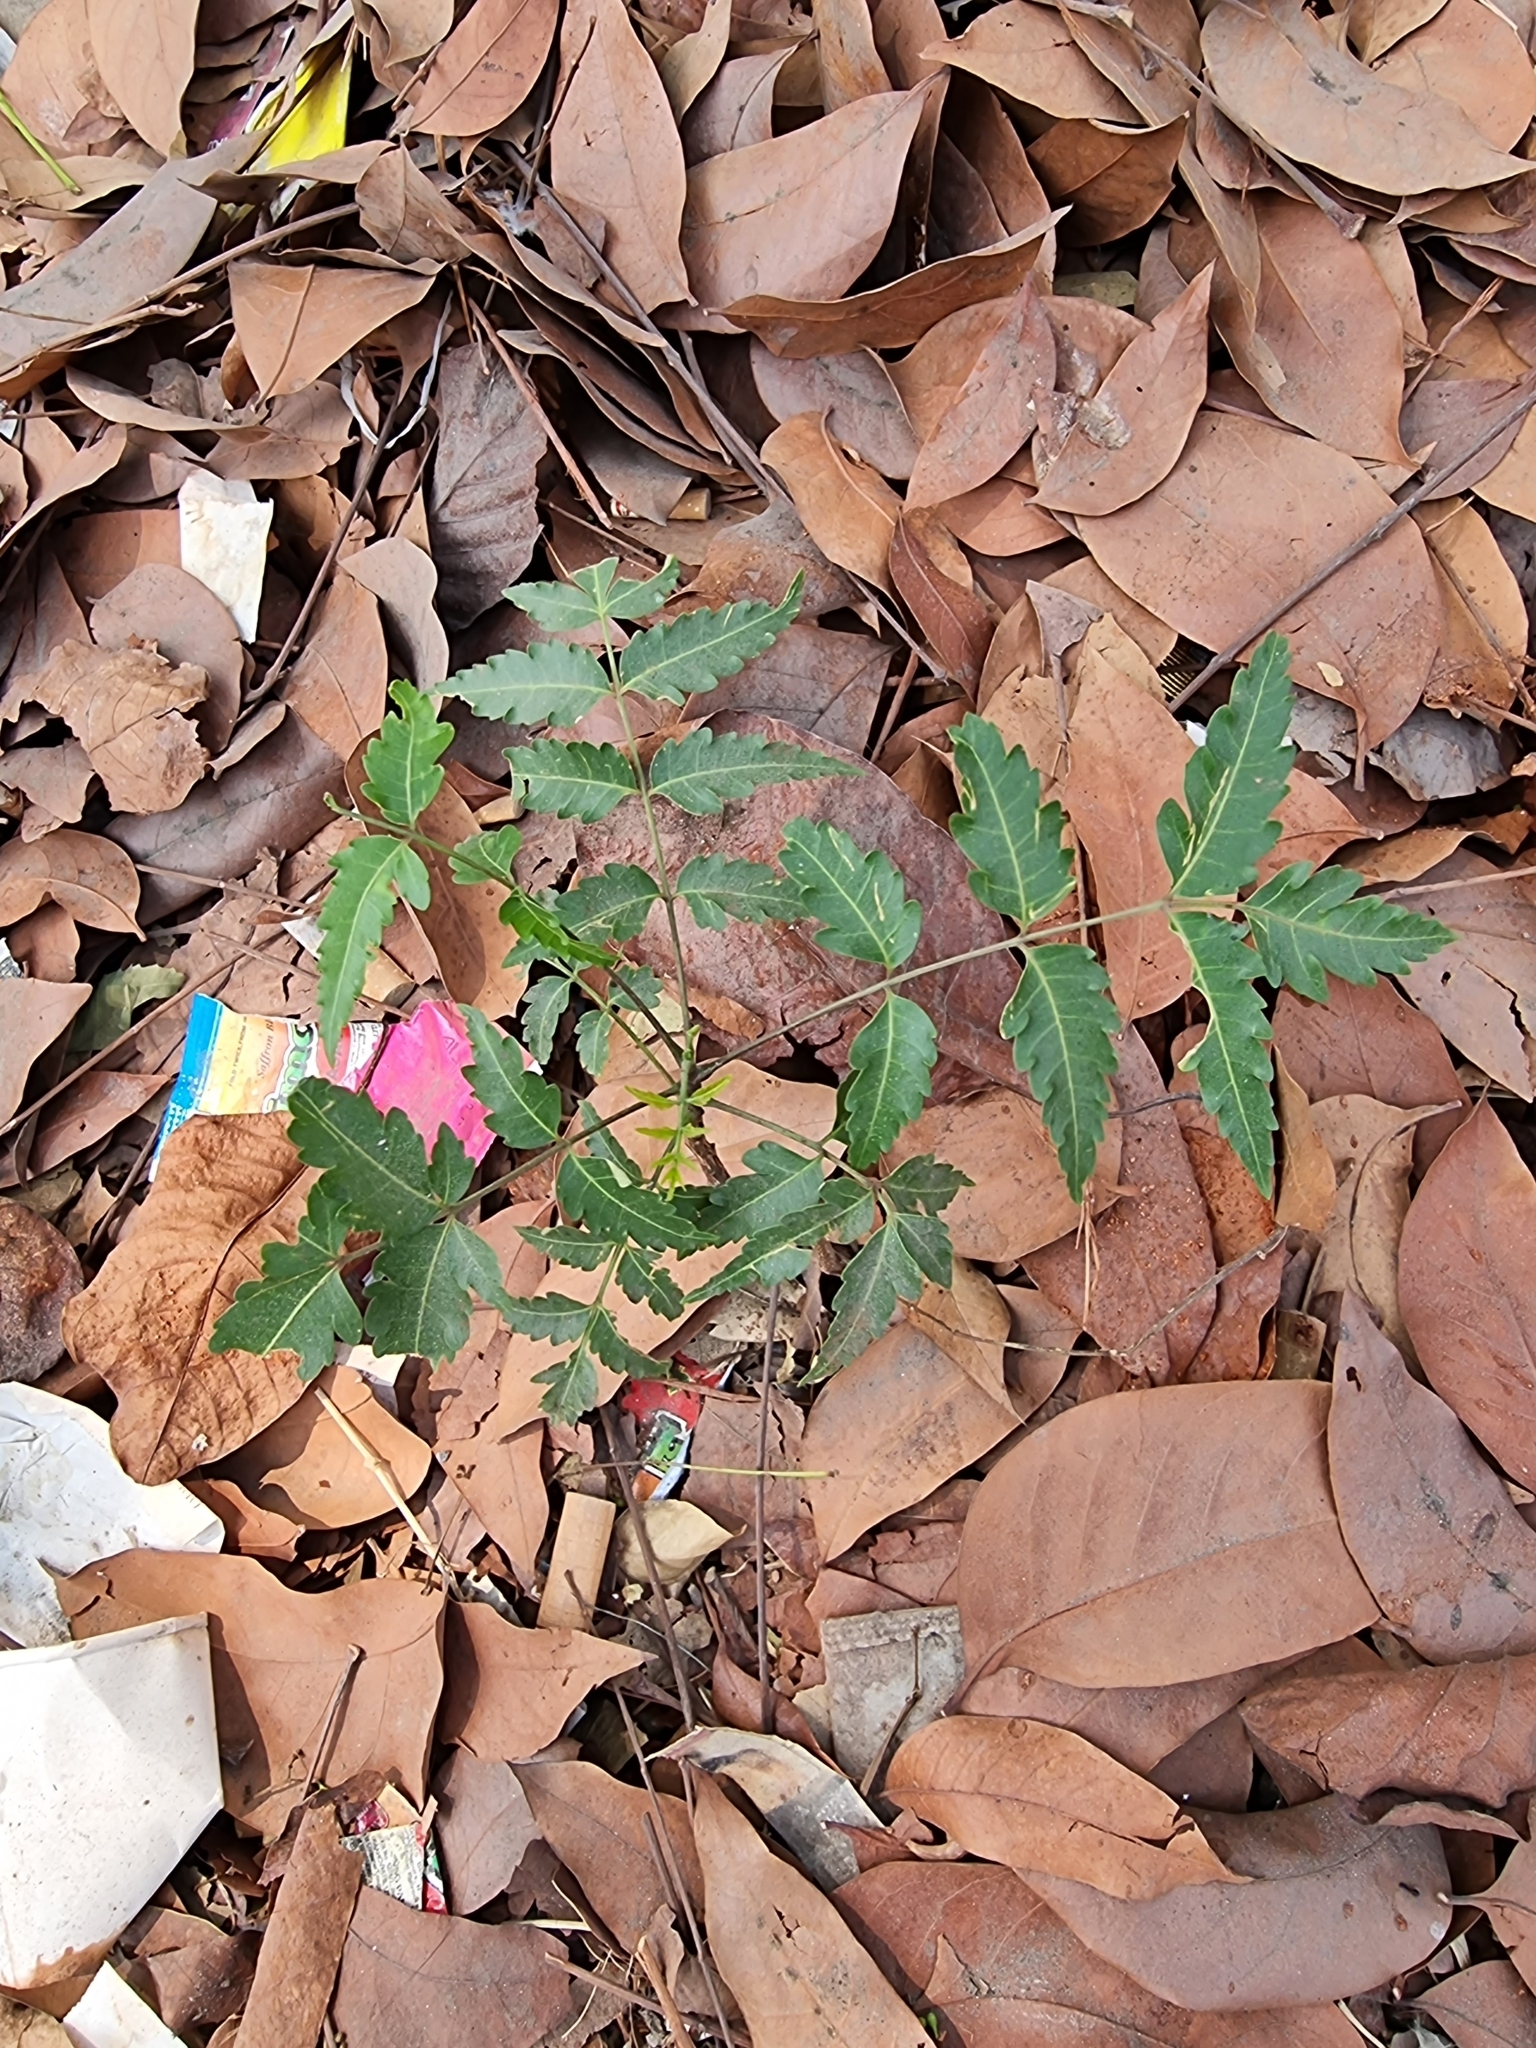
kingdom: Plantae
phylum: Tracheophyta
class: Magnoliopsida
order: Sapindales
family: Meliaceae
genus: Azadirachta
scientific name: Azadirachta indica
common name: Neem
